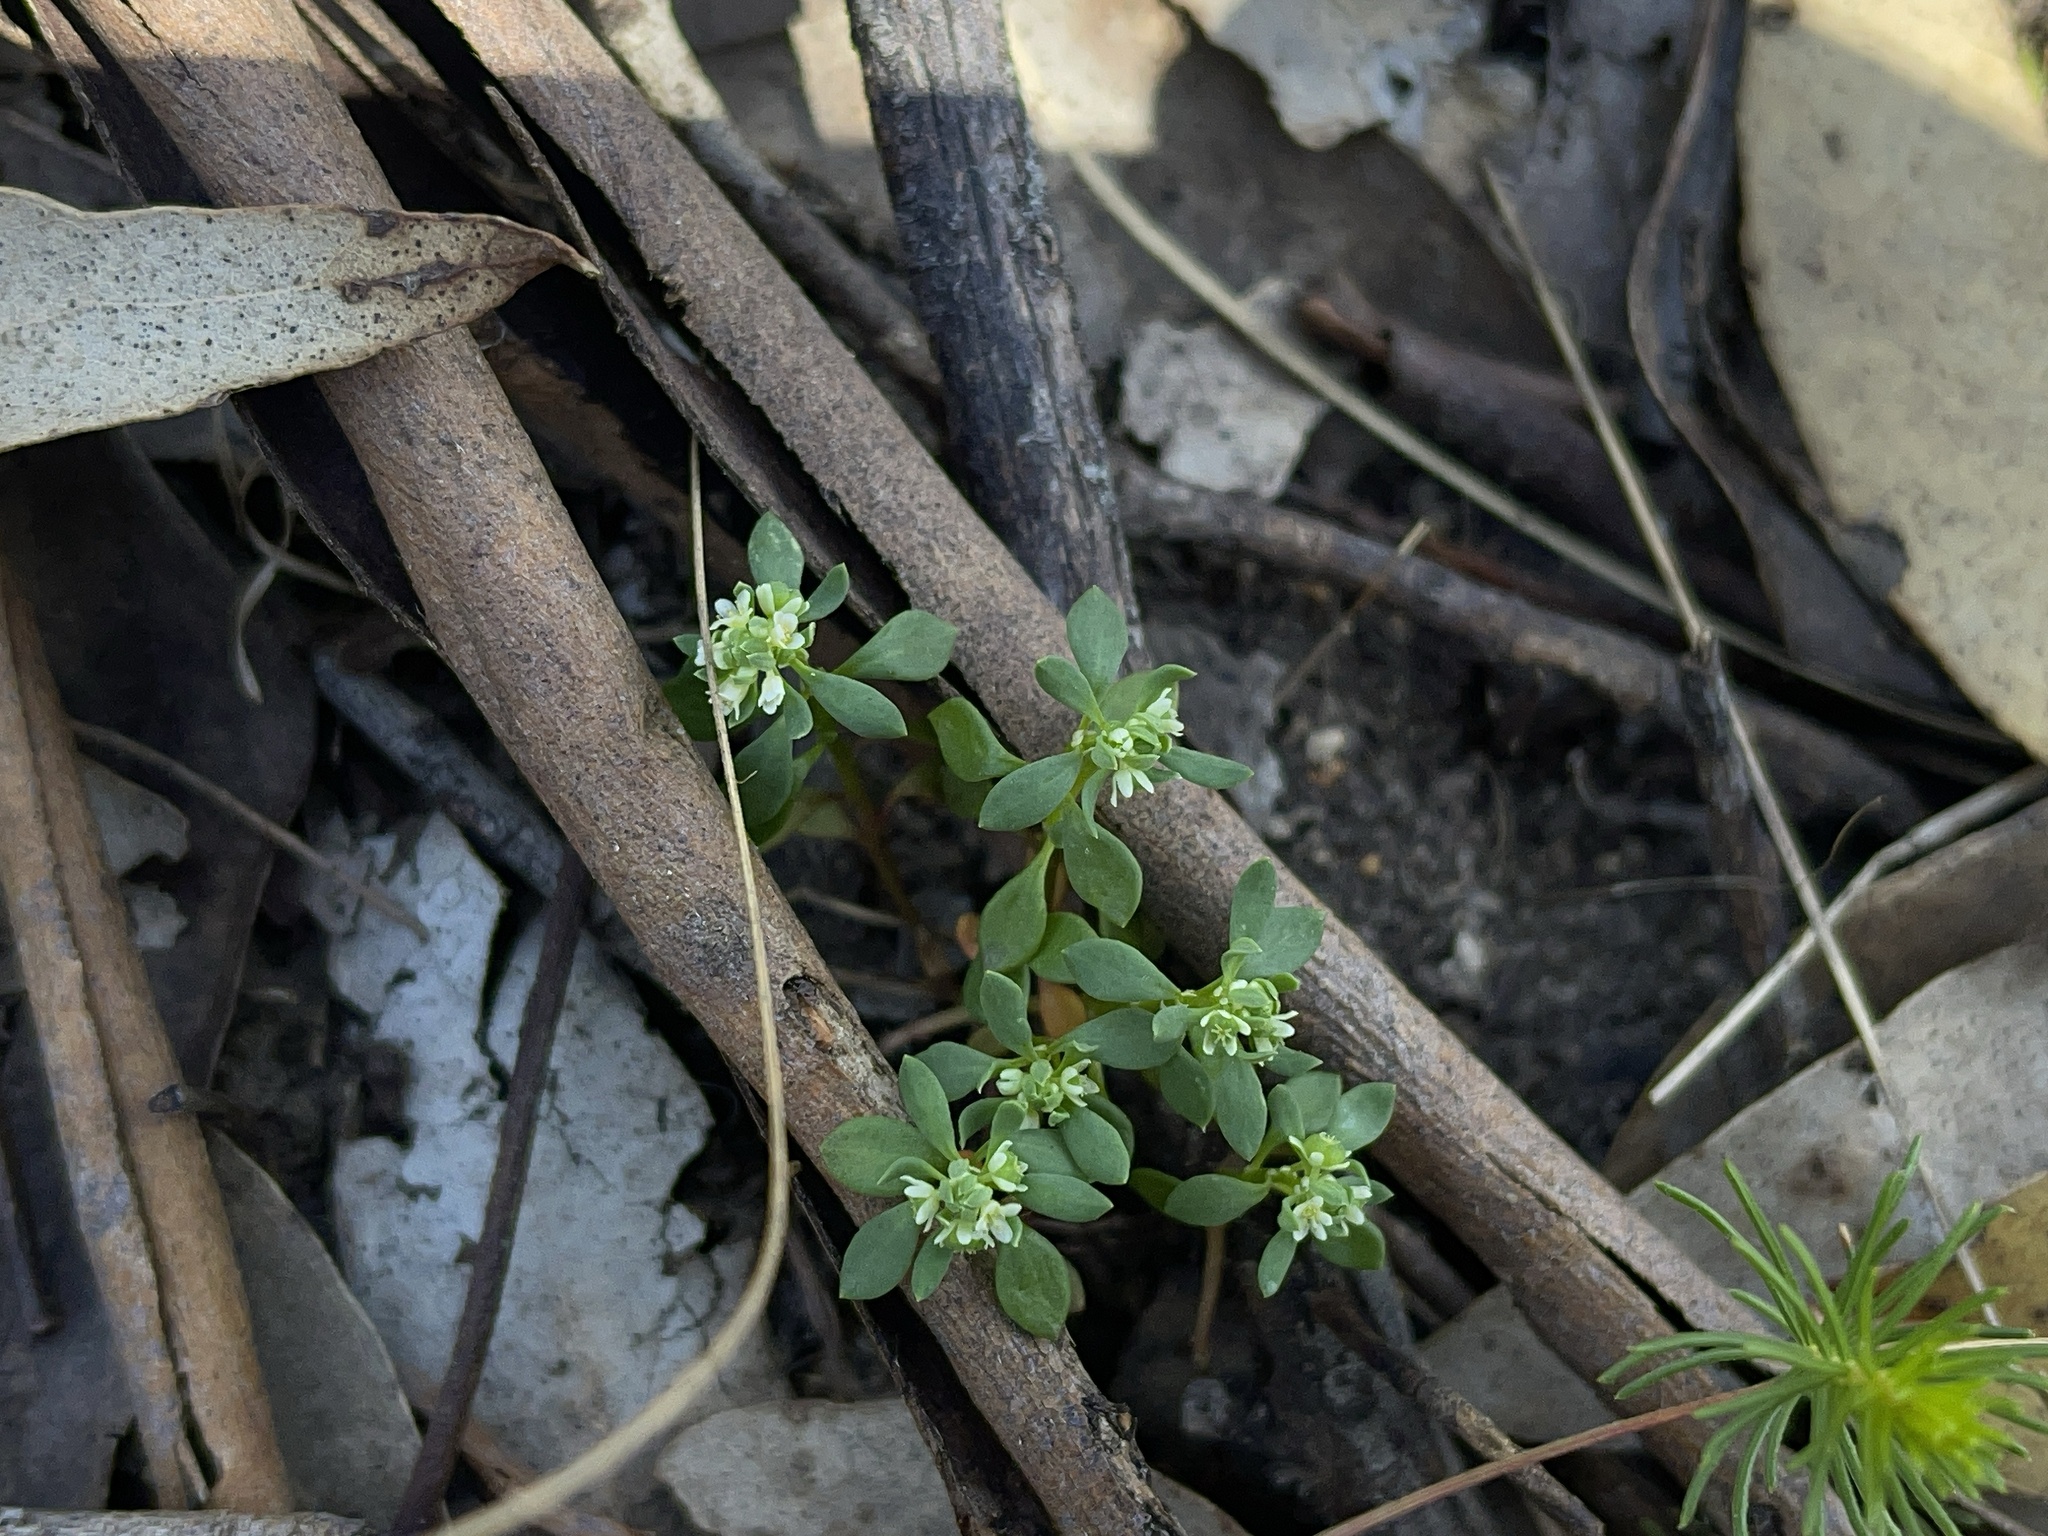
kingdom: Plantae
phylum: Tracheophyta
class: Magnoliopsida
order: Malpighiales
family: Phyllanthaceae
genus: Poranthera
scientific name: Poranthera microphylla
